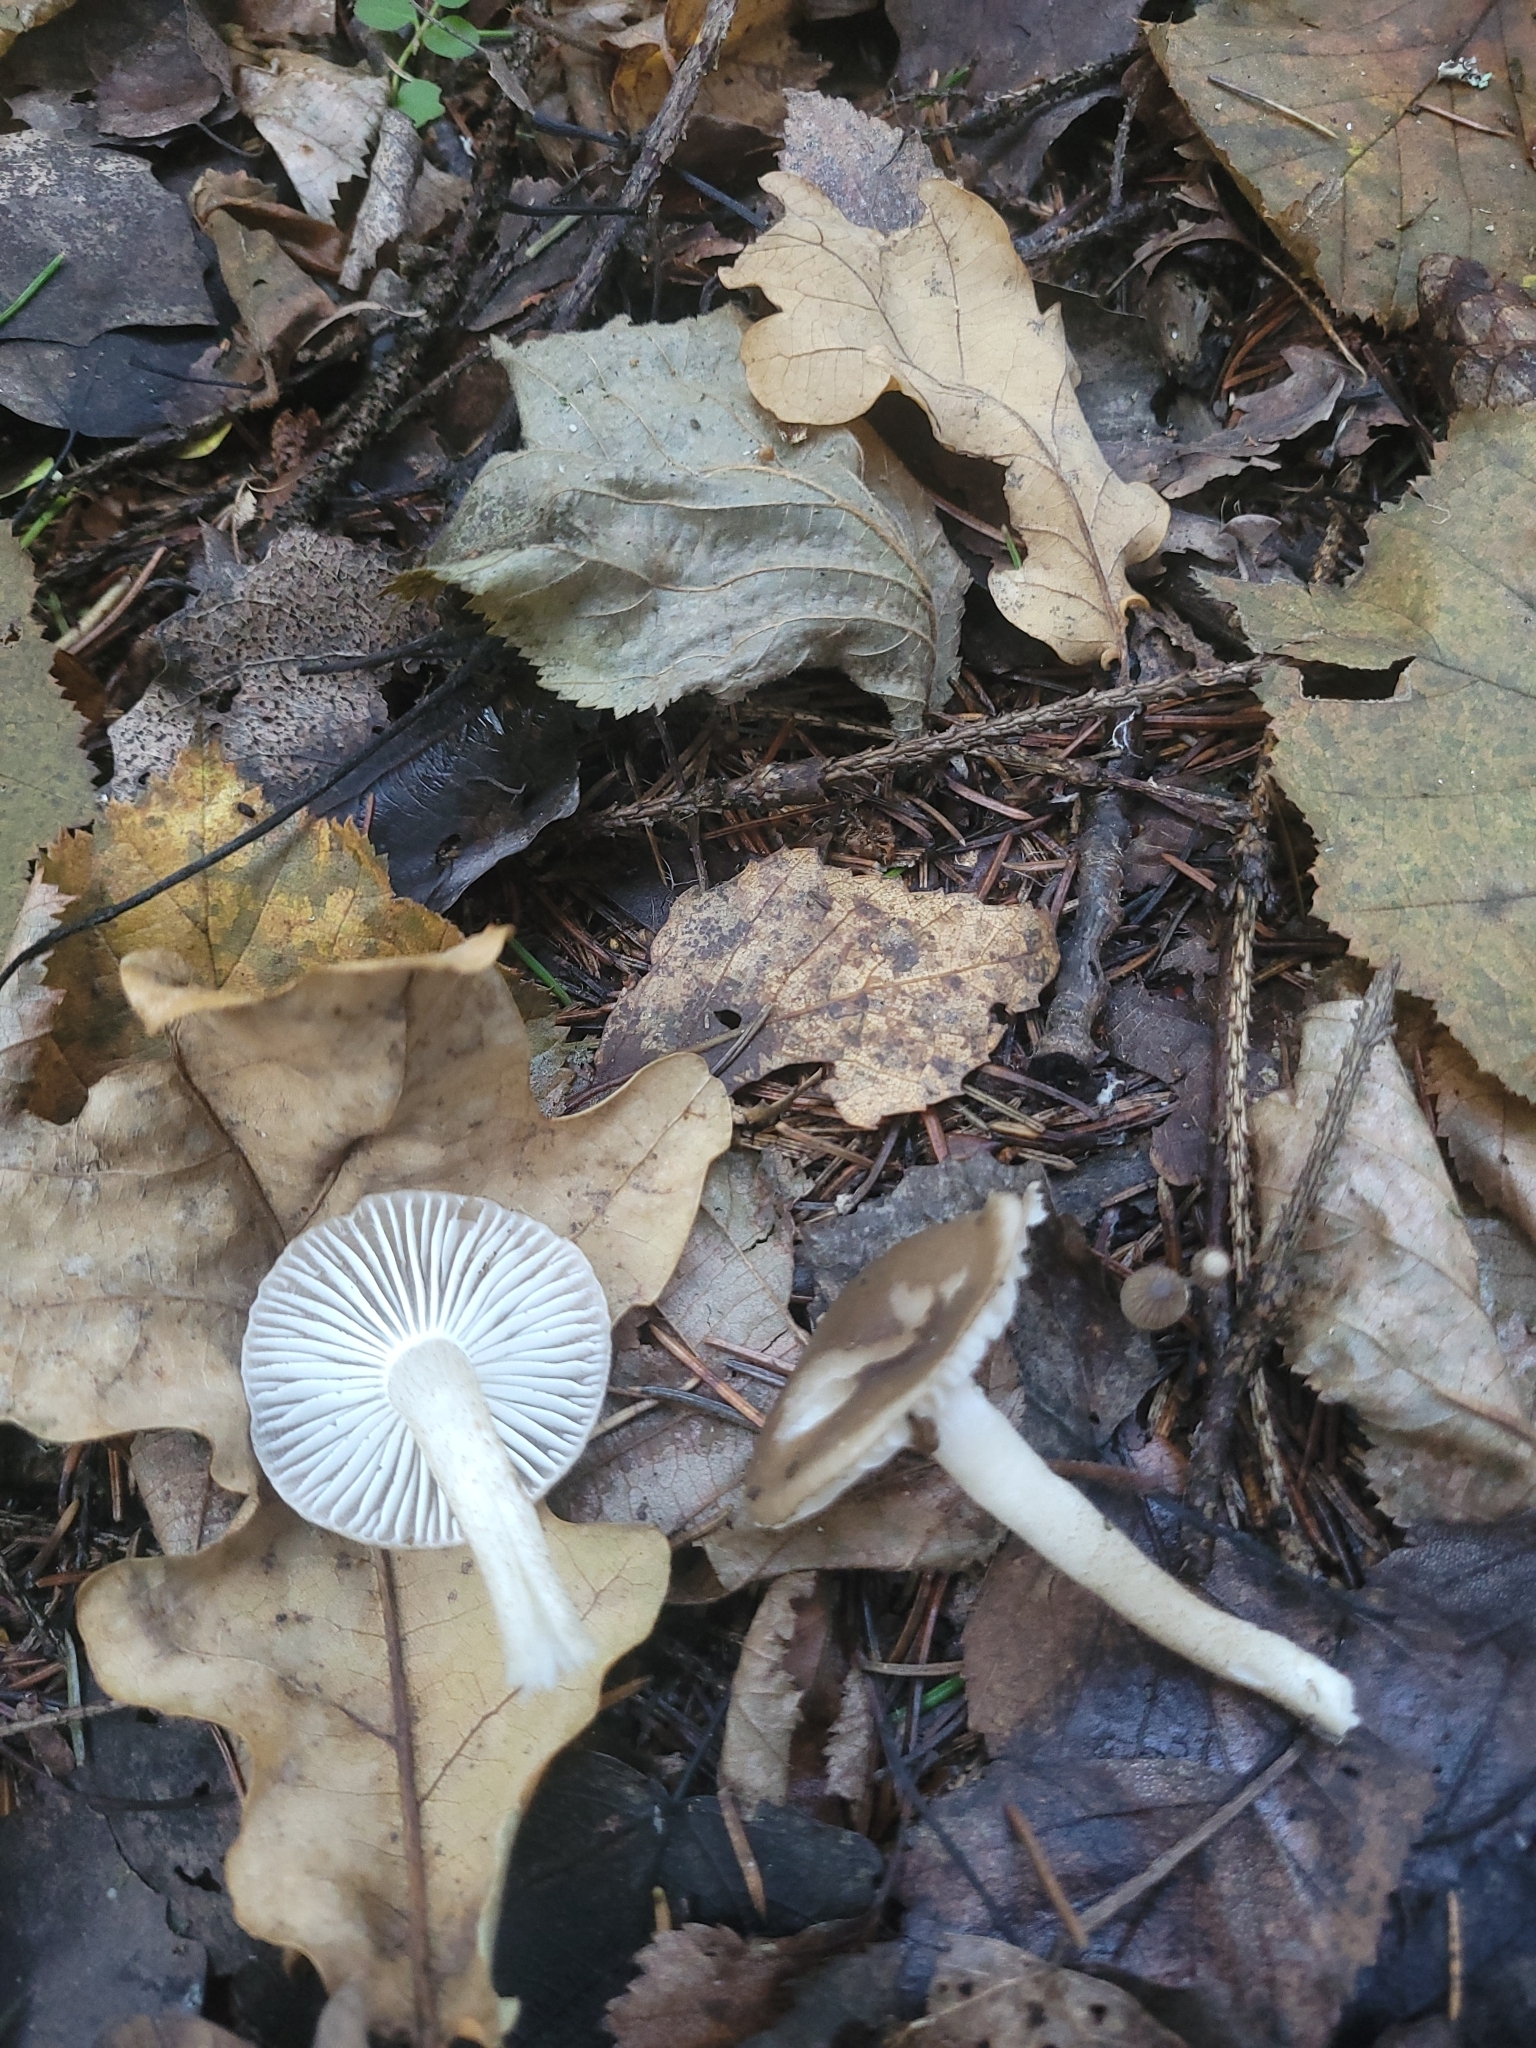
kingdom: Fungi
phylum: Basidiomycota
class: Agaricomycetes
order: Agaricales
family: Hygrophoraceae
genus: Hygrophorus
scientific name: Hygrophorus pustulatus
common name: Blistered woodwax
